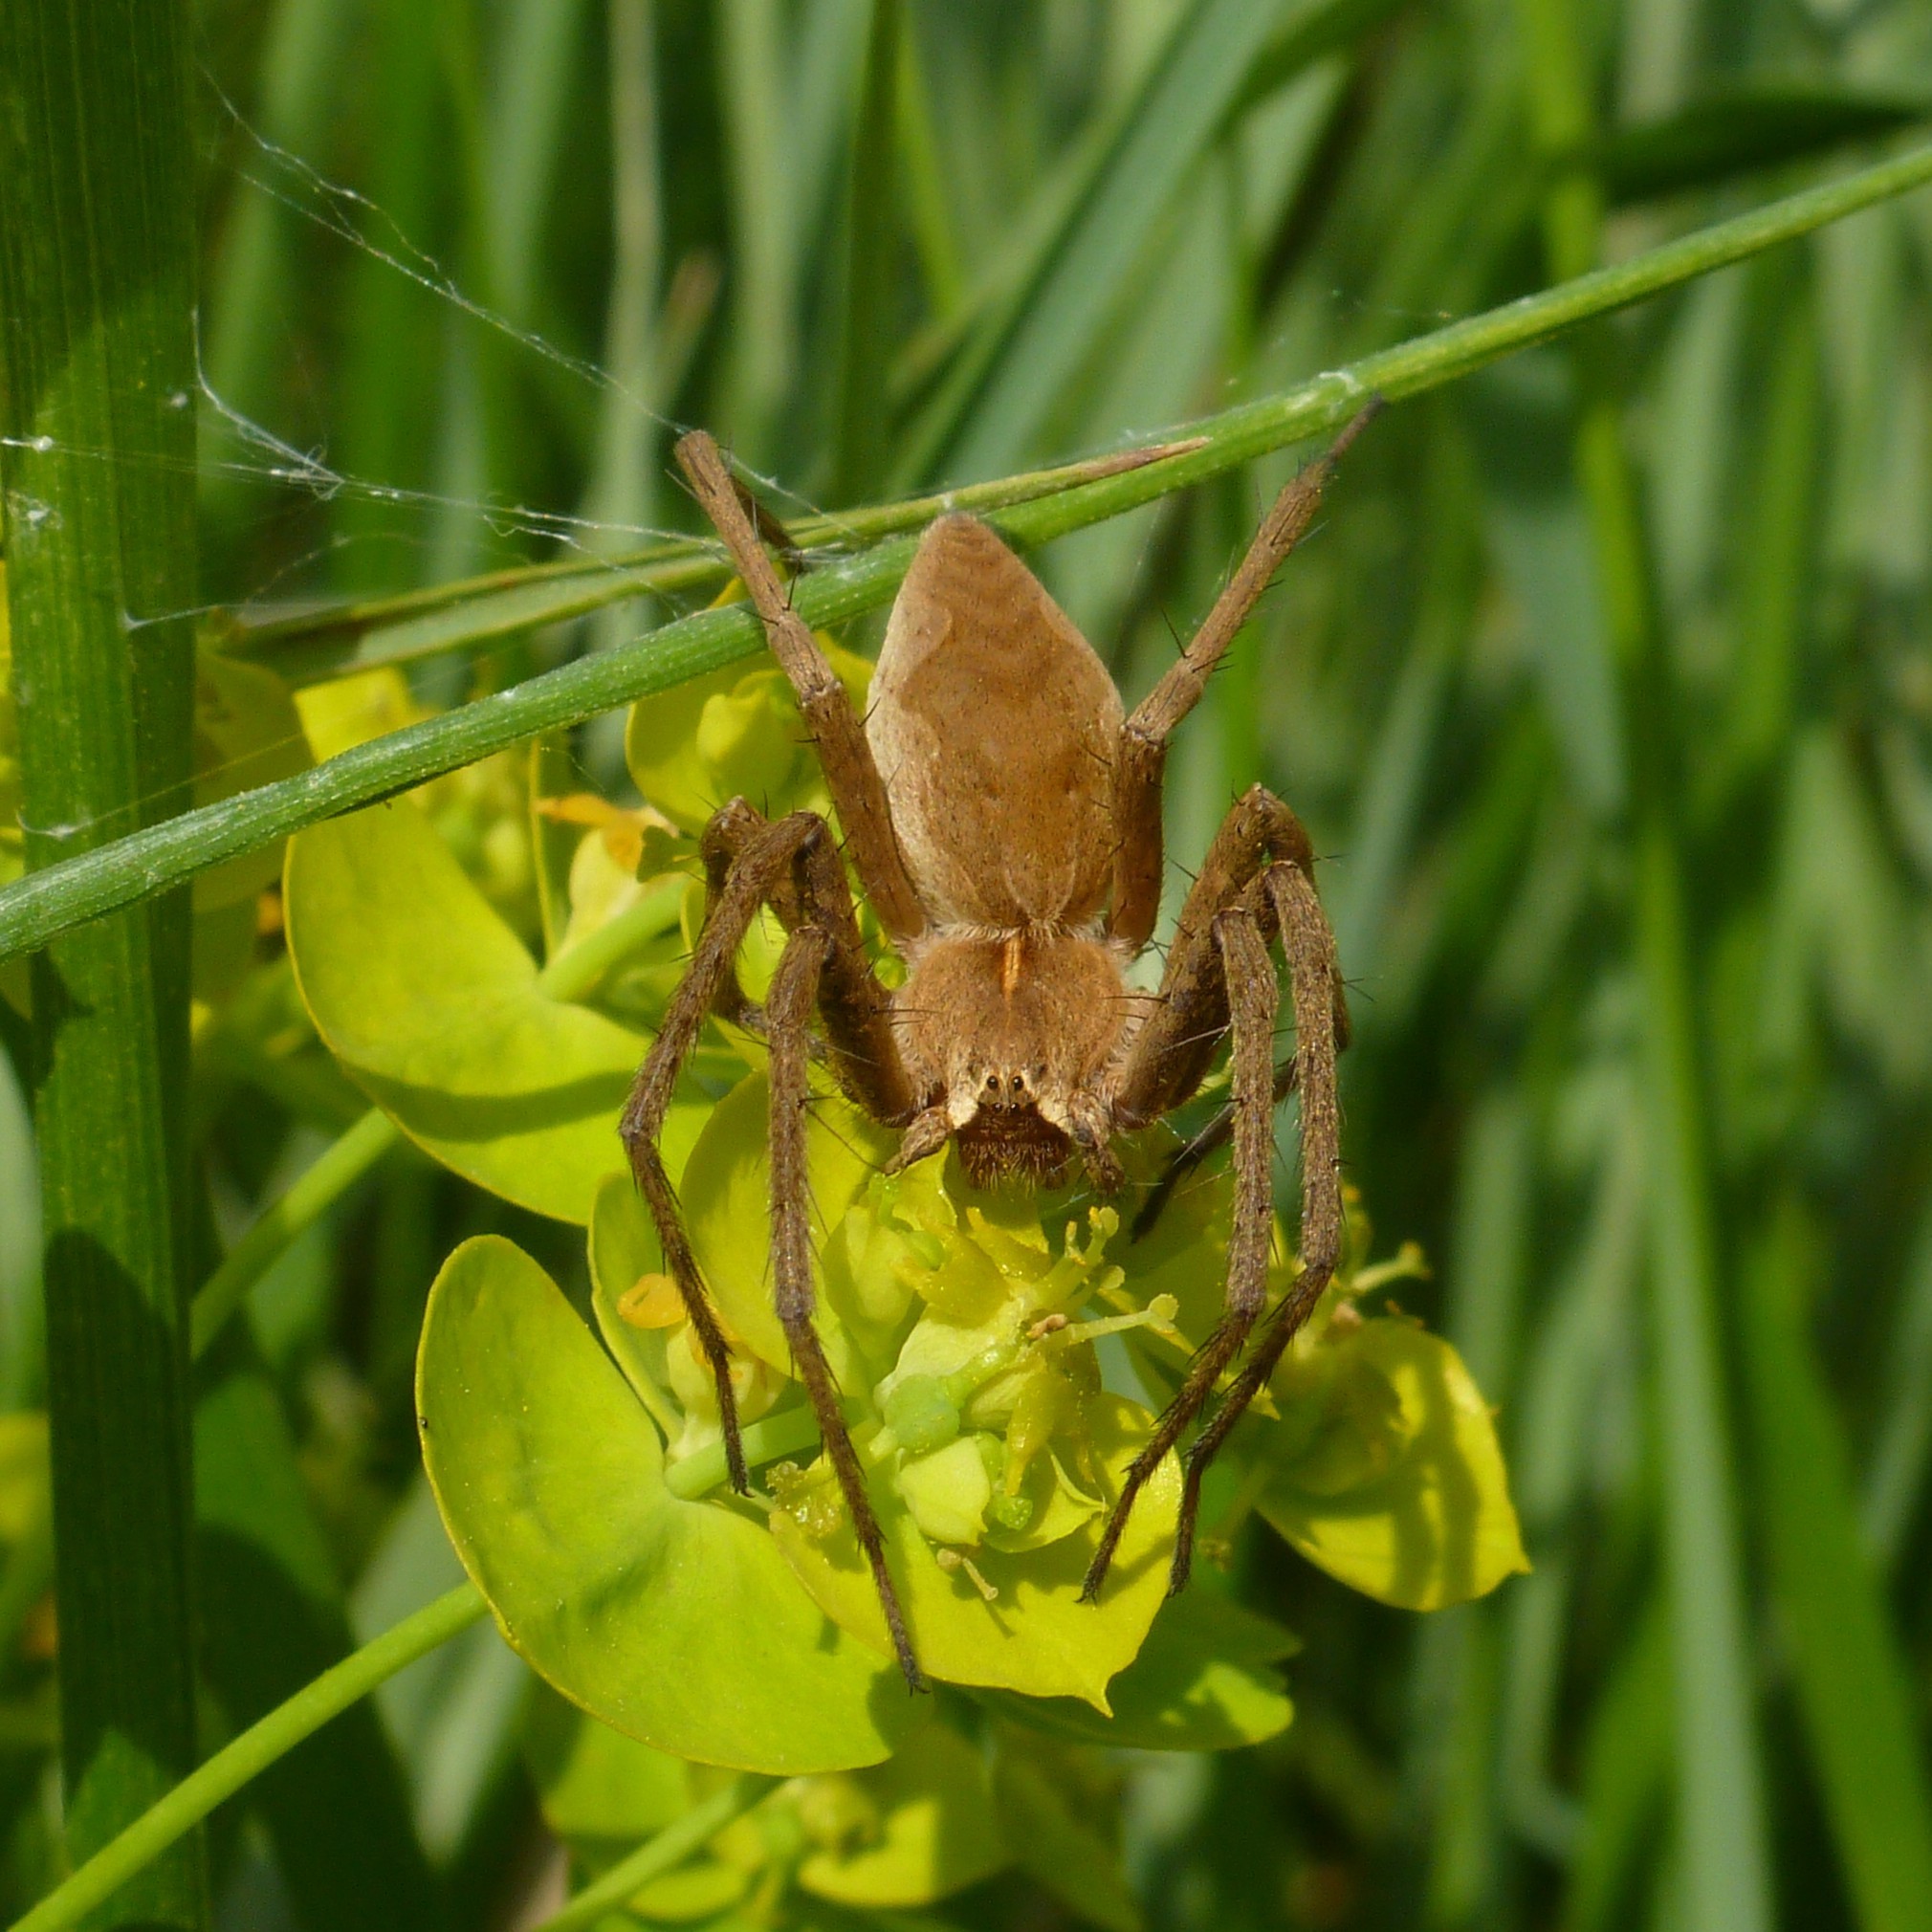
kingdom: Animalia
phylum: Arthropoda
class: Arachnida
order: Araneae
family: Pisauridae
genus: Pisaura
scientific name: Pisaura
